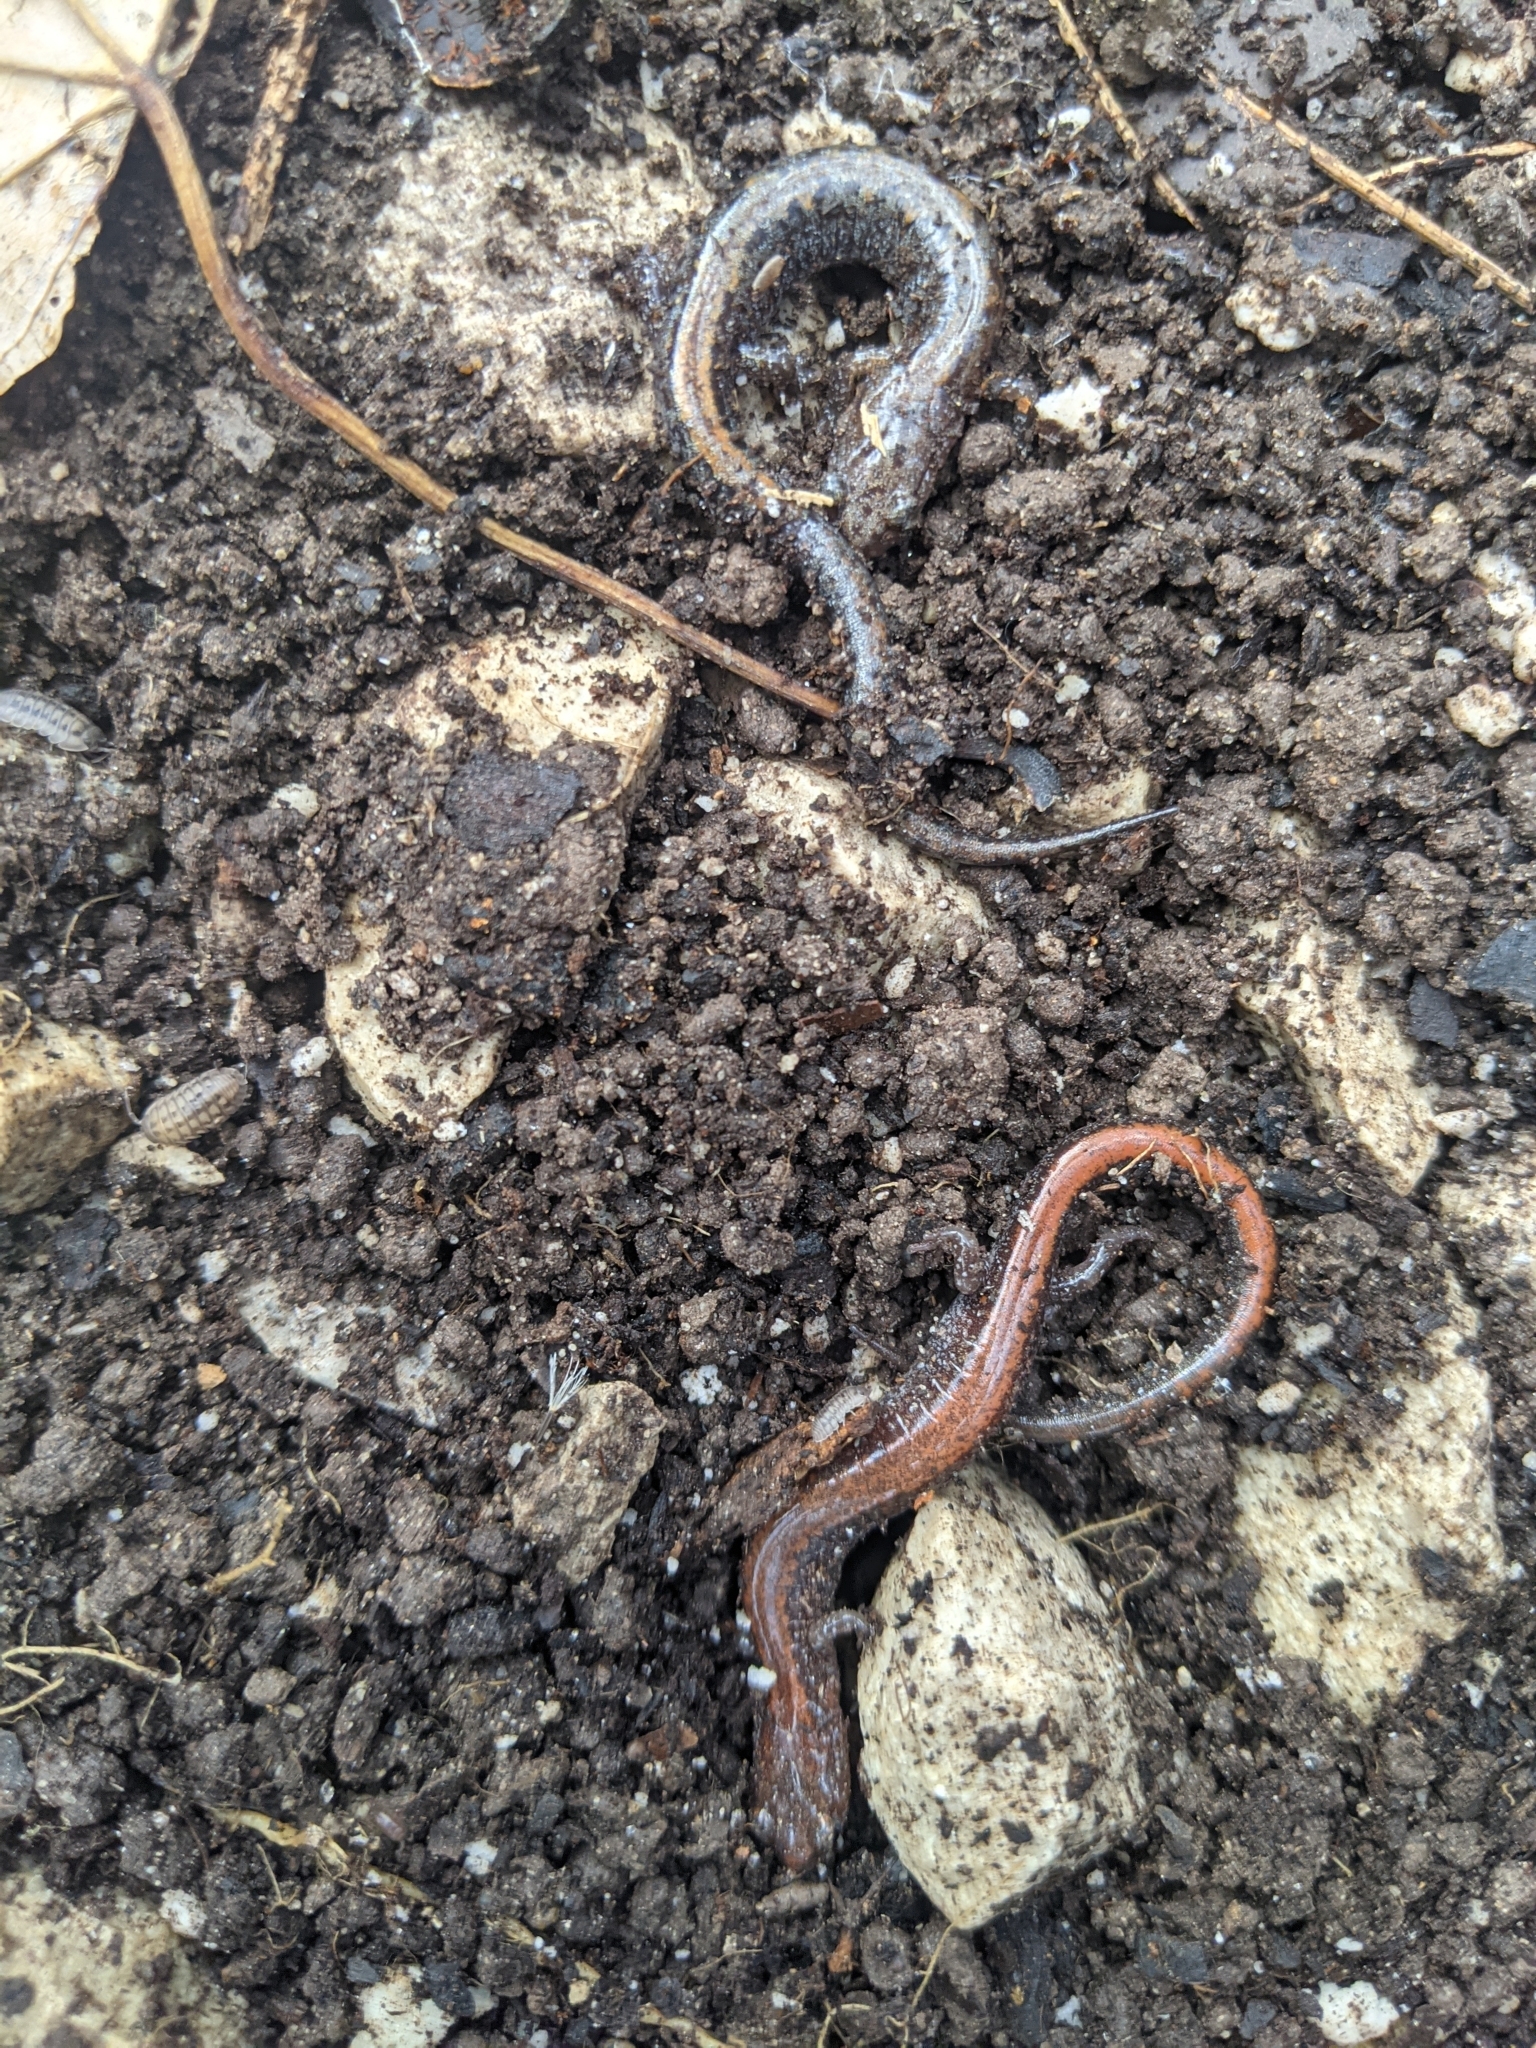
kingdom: Animalia
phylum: Chordata
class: Amphibia
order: Caudata
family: Plethodontidae
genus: Plethodon
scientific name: Plethodon cinereus
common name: Redback salamander
